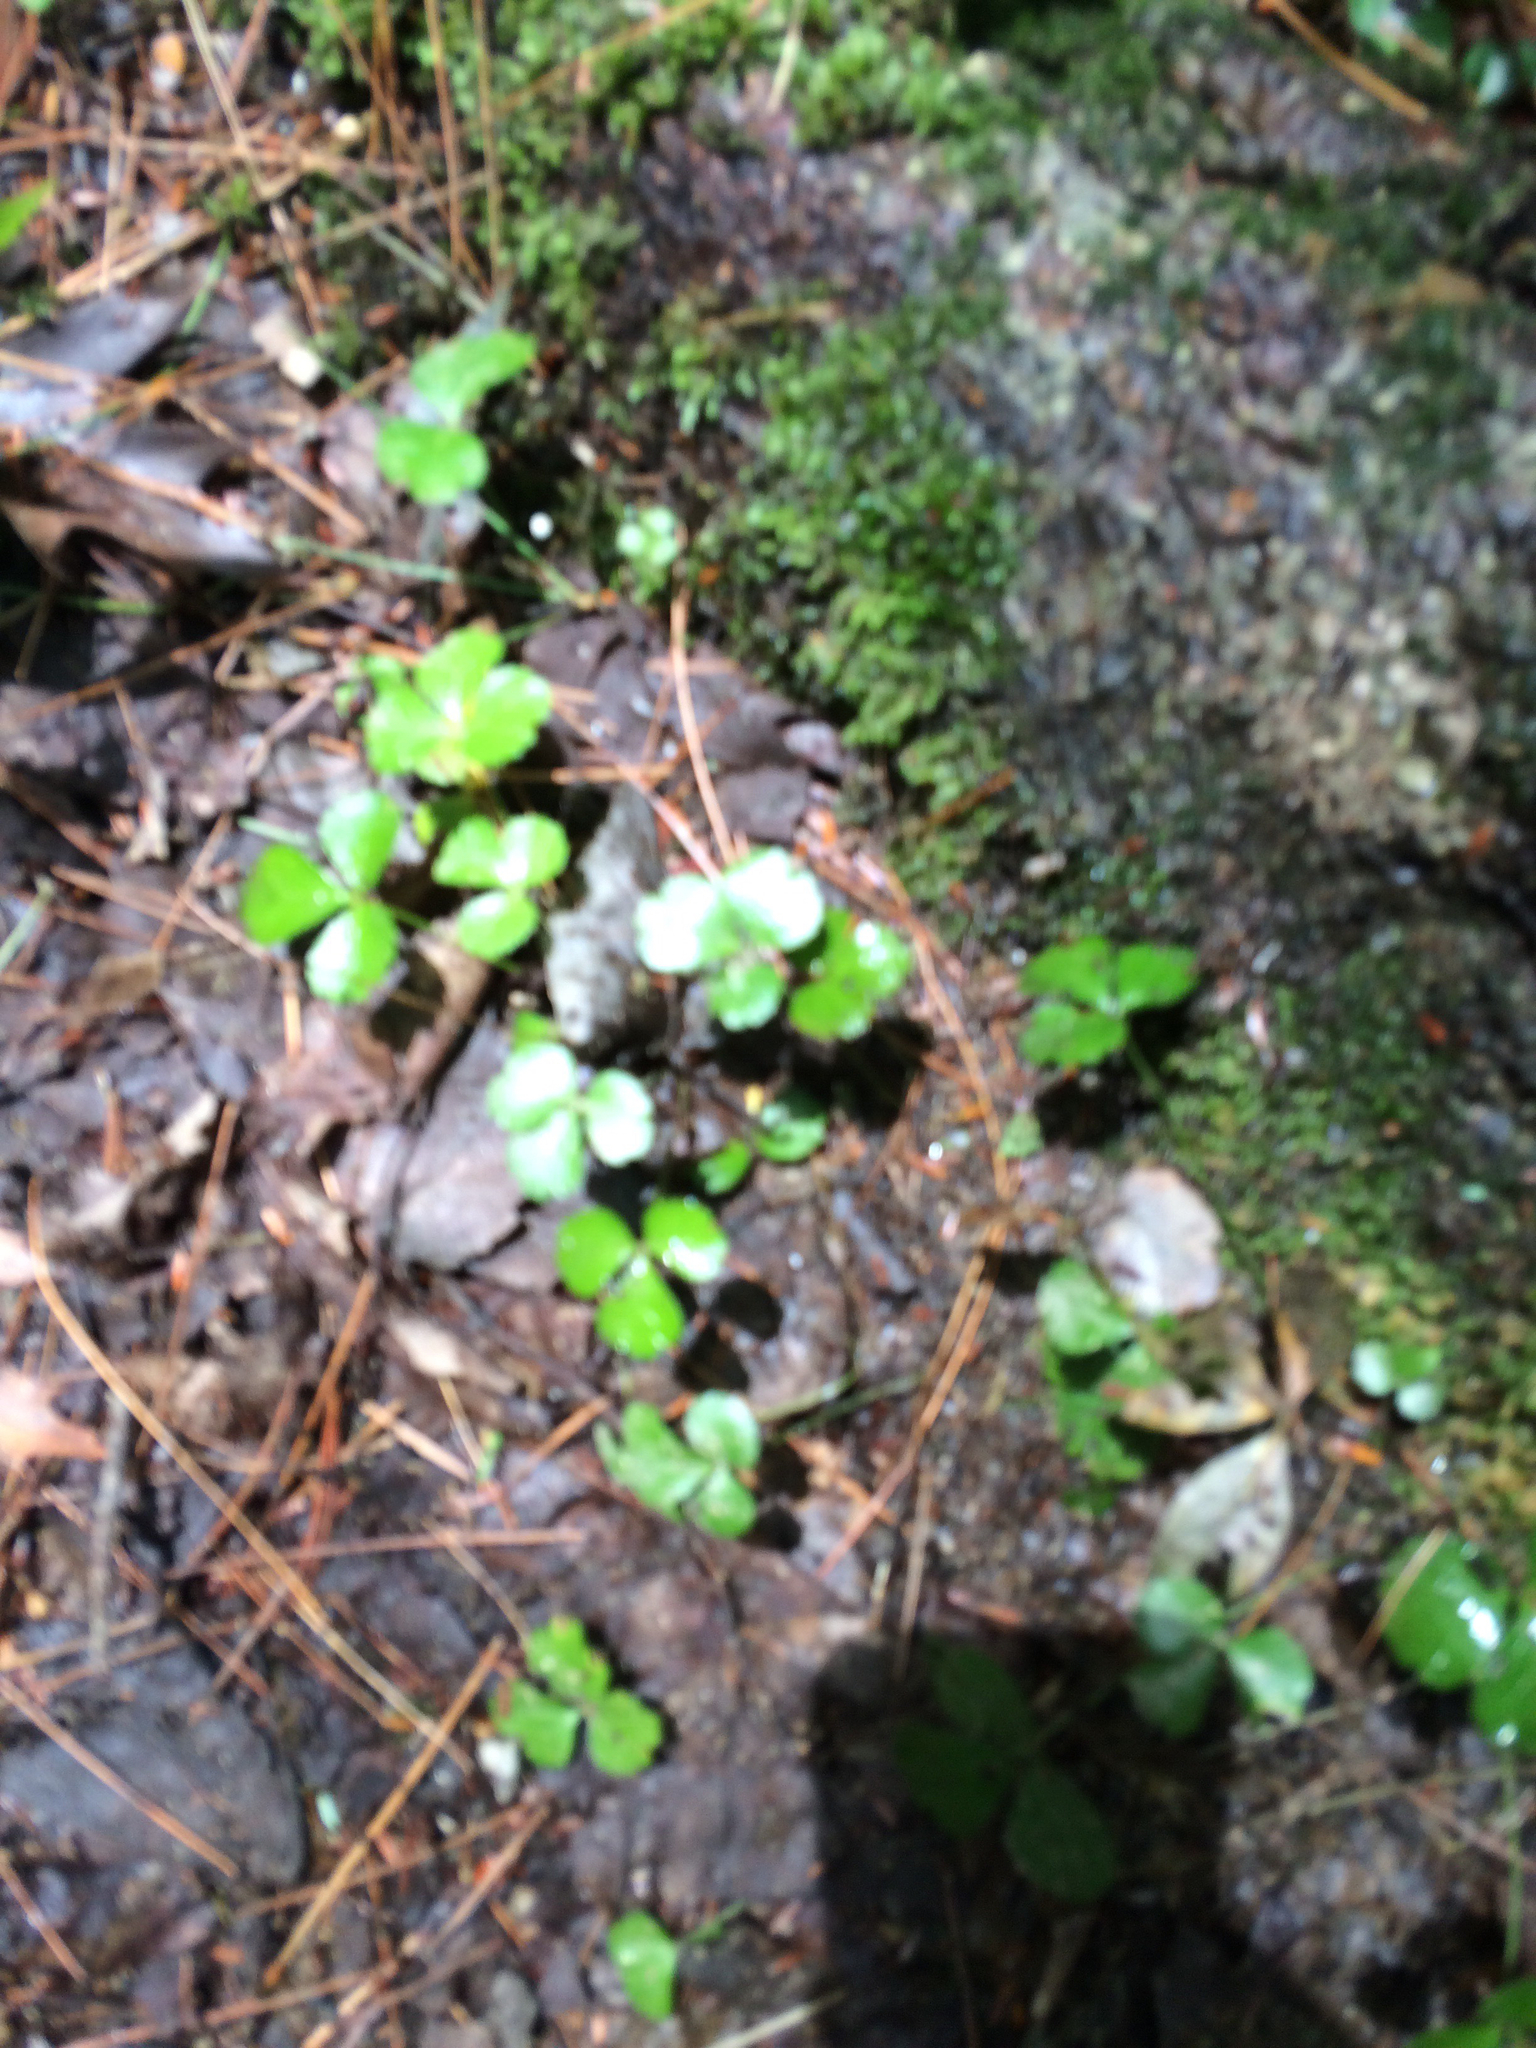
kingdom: Plantae
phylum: Tracheophyta
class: Magnoliopsida
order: Ranunculales
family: Ranunculaceae
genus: Coptis
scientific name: Coptis trifolia
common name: Canker-root
